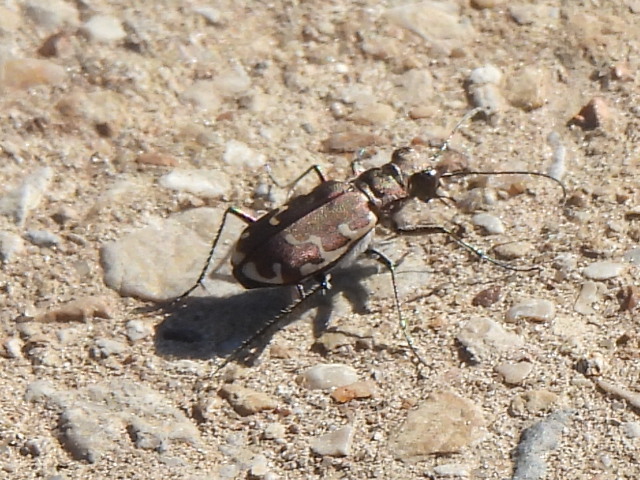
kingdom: Animalia
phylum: Arthropoda
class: Insecta
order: Coleoptera
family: Carabidae
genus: Cicindela
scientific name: Cicindela repanda
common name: Bronzed tiger beetle
